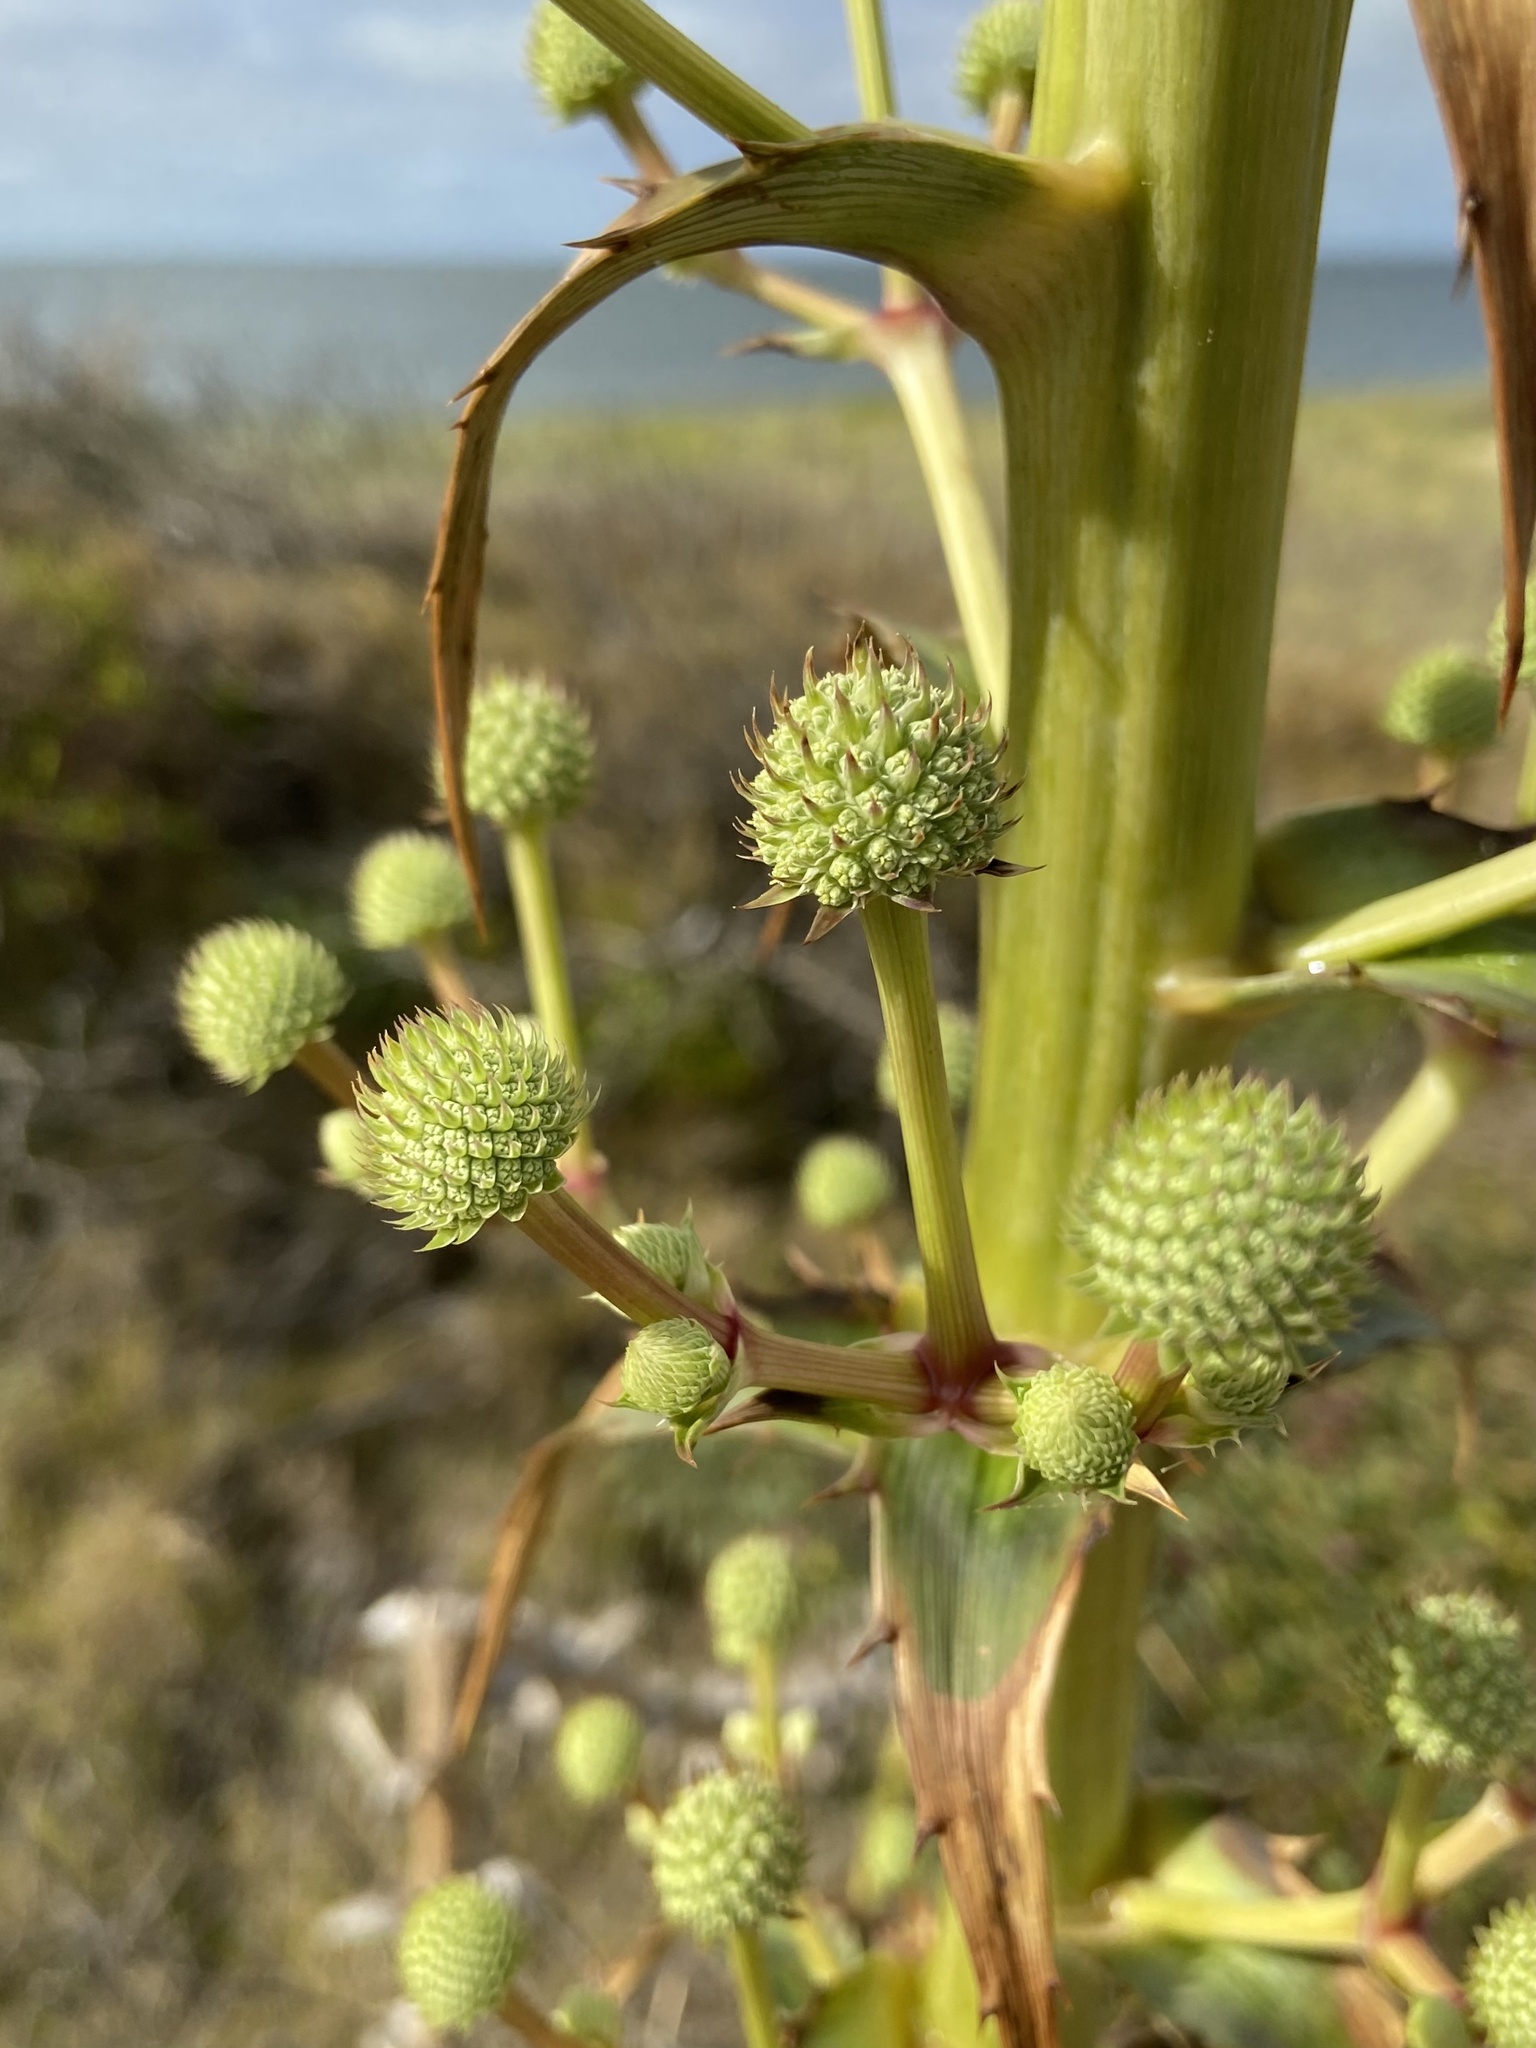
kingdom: Plantae
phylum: Tracheophyta
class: Magnoliopsida
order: Apiales
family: Apiaceae
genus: Eryngium
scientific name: Eryngium horridum
